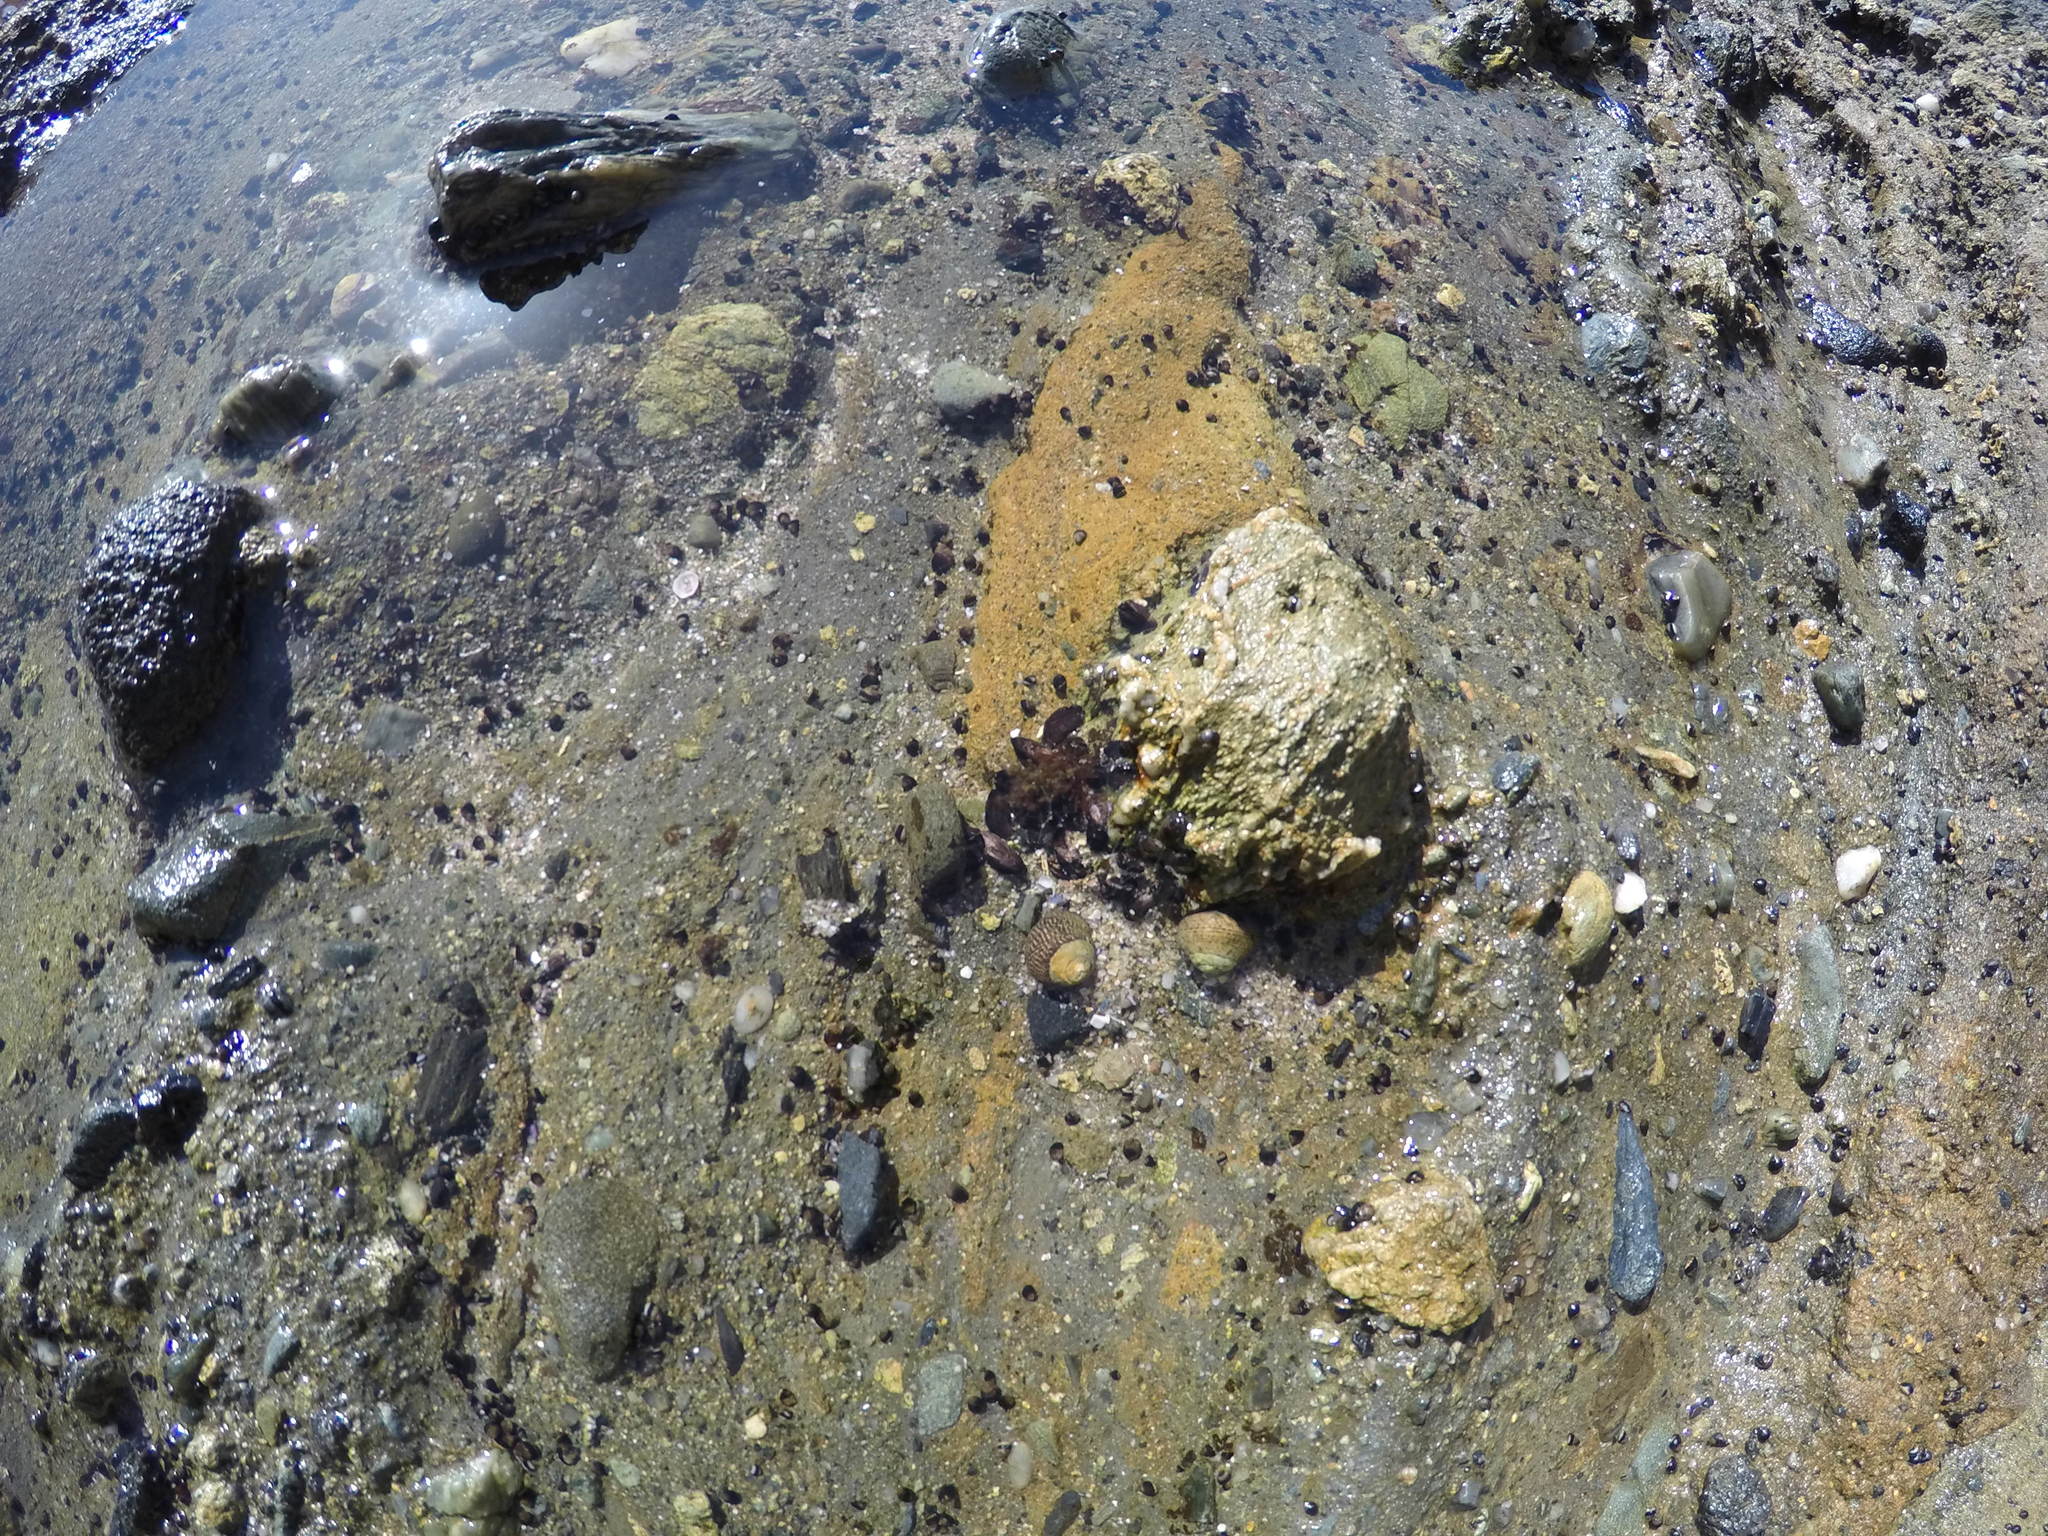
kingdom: Animalia
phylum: Mollusca
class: Gastropoda
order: Trochida
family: Tegulidae
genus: Tegula
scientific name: Tegula gallina
